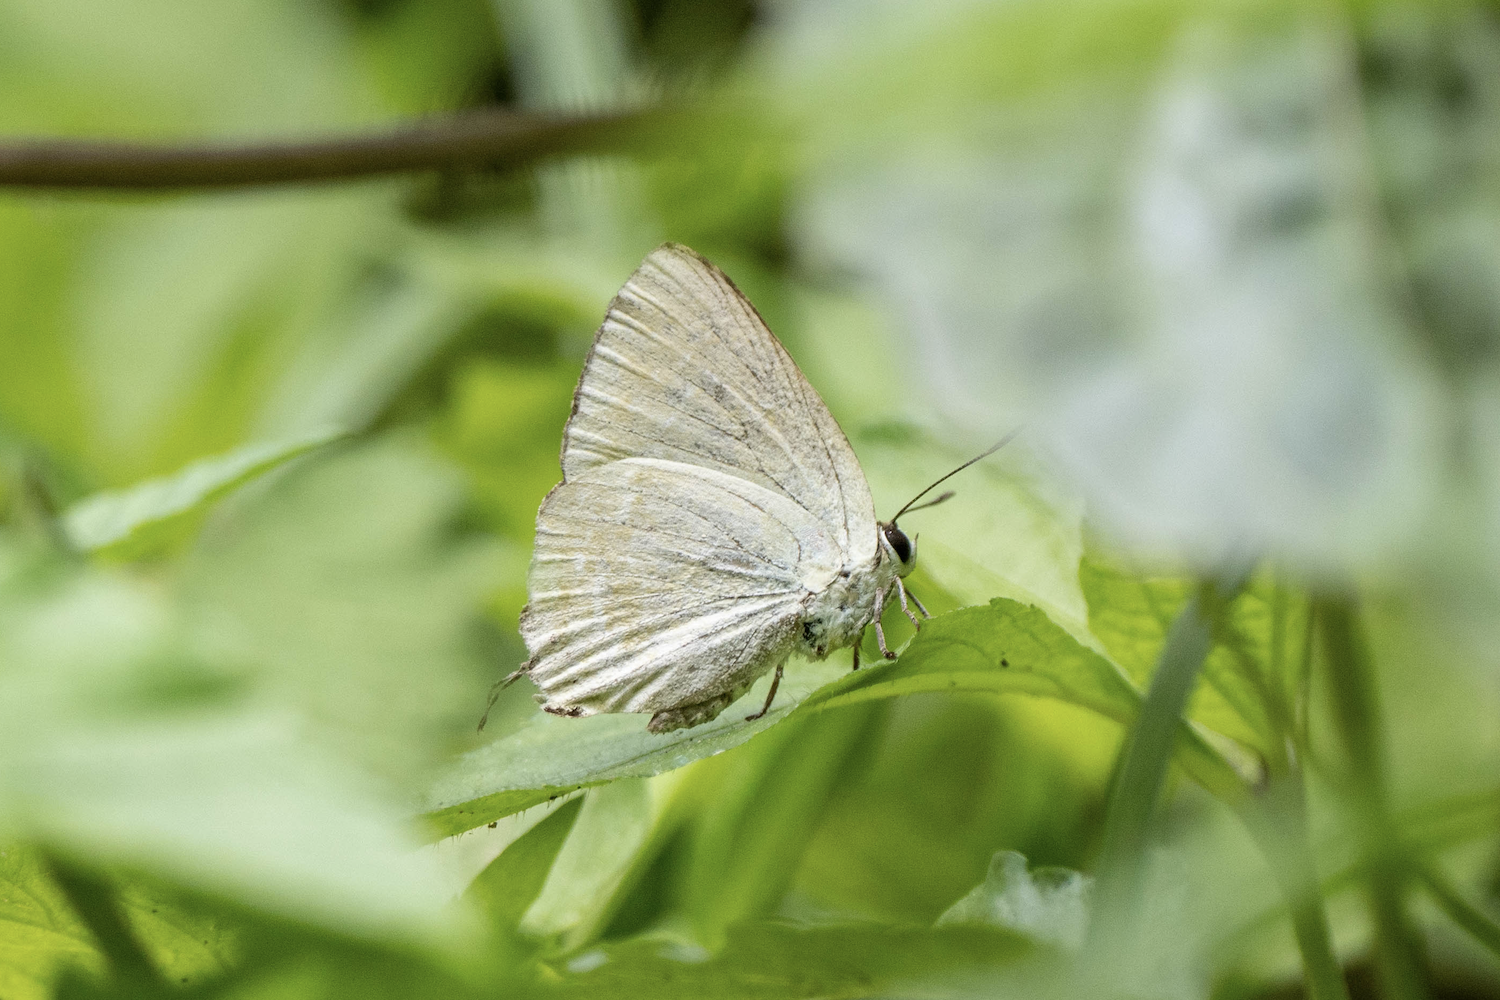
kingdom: Animalia
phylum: Arthropoda
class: Insecta
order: Lepidoptera
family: Lycaenidae
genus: Artipe
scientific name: Artipe eryx
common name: Green flash
